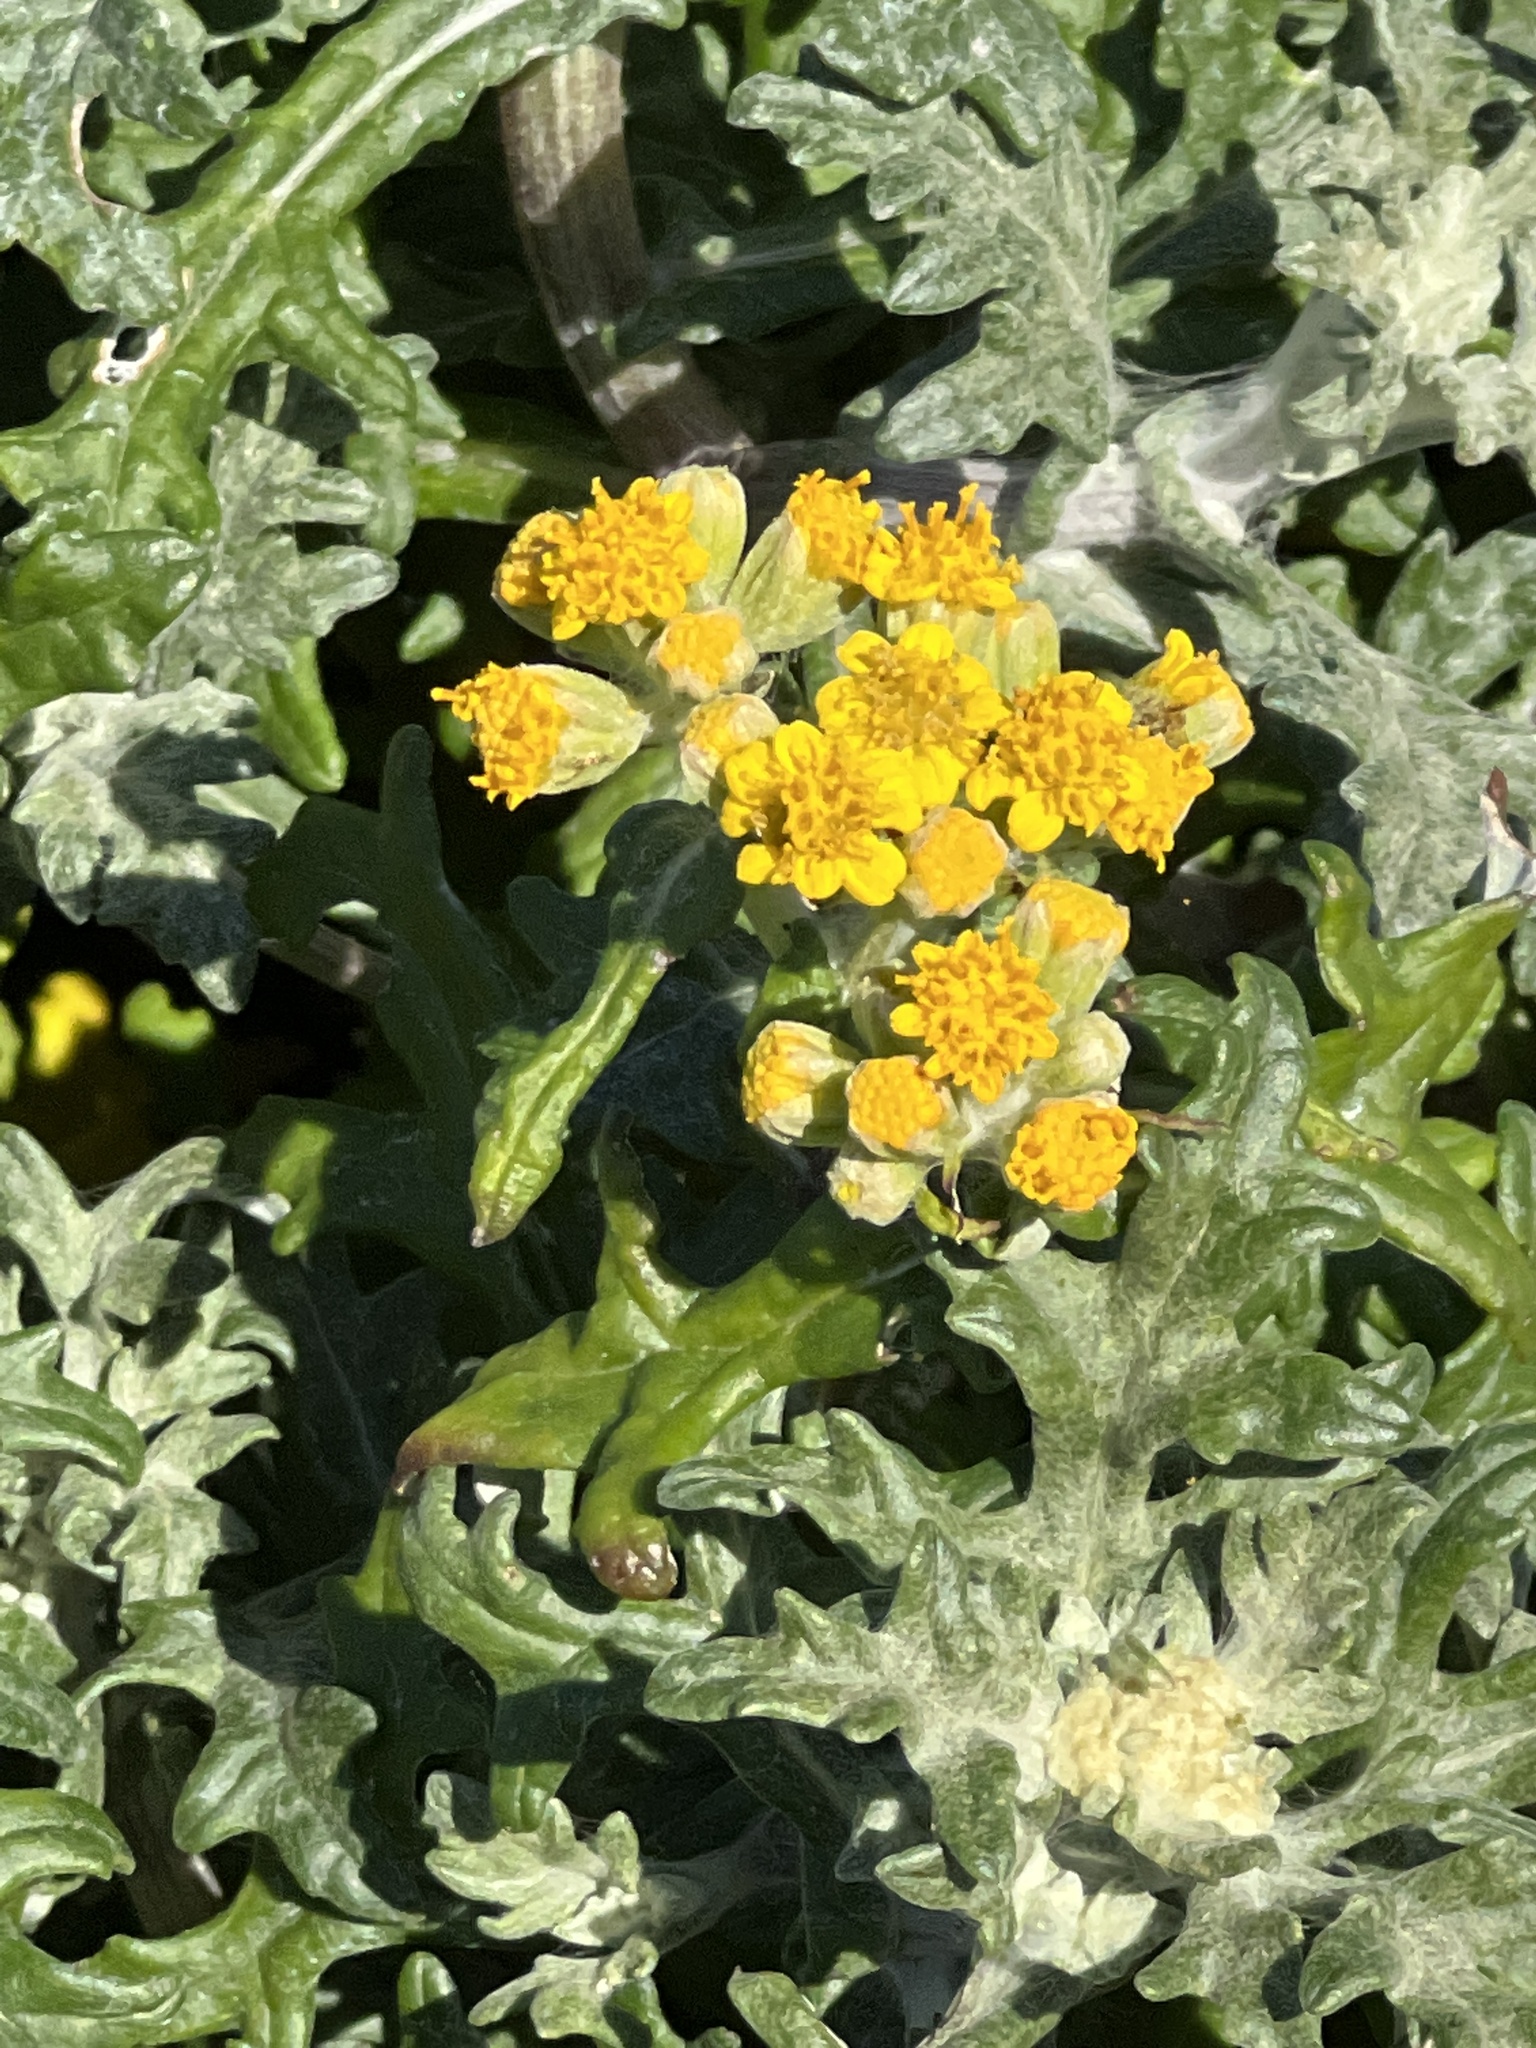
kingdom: Plantae
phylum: Tracheophyta
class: Magnoliopsida
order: Asterales
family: Asteraceae
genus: Eriophyllum
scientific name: Eriophyllum staechadifolium
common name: Lizardtail
